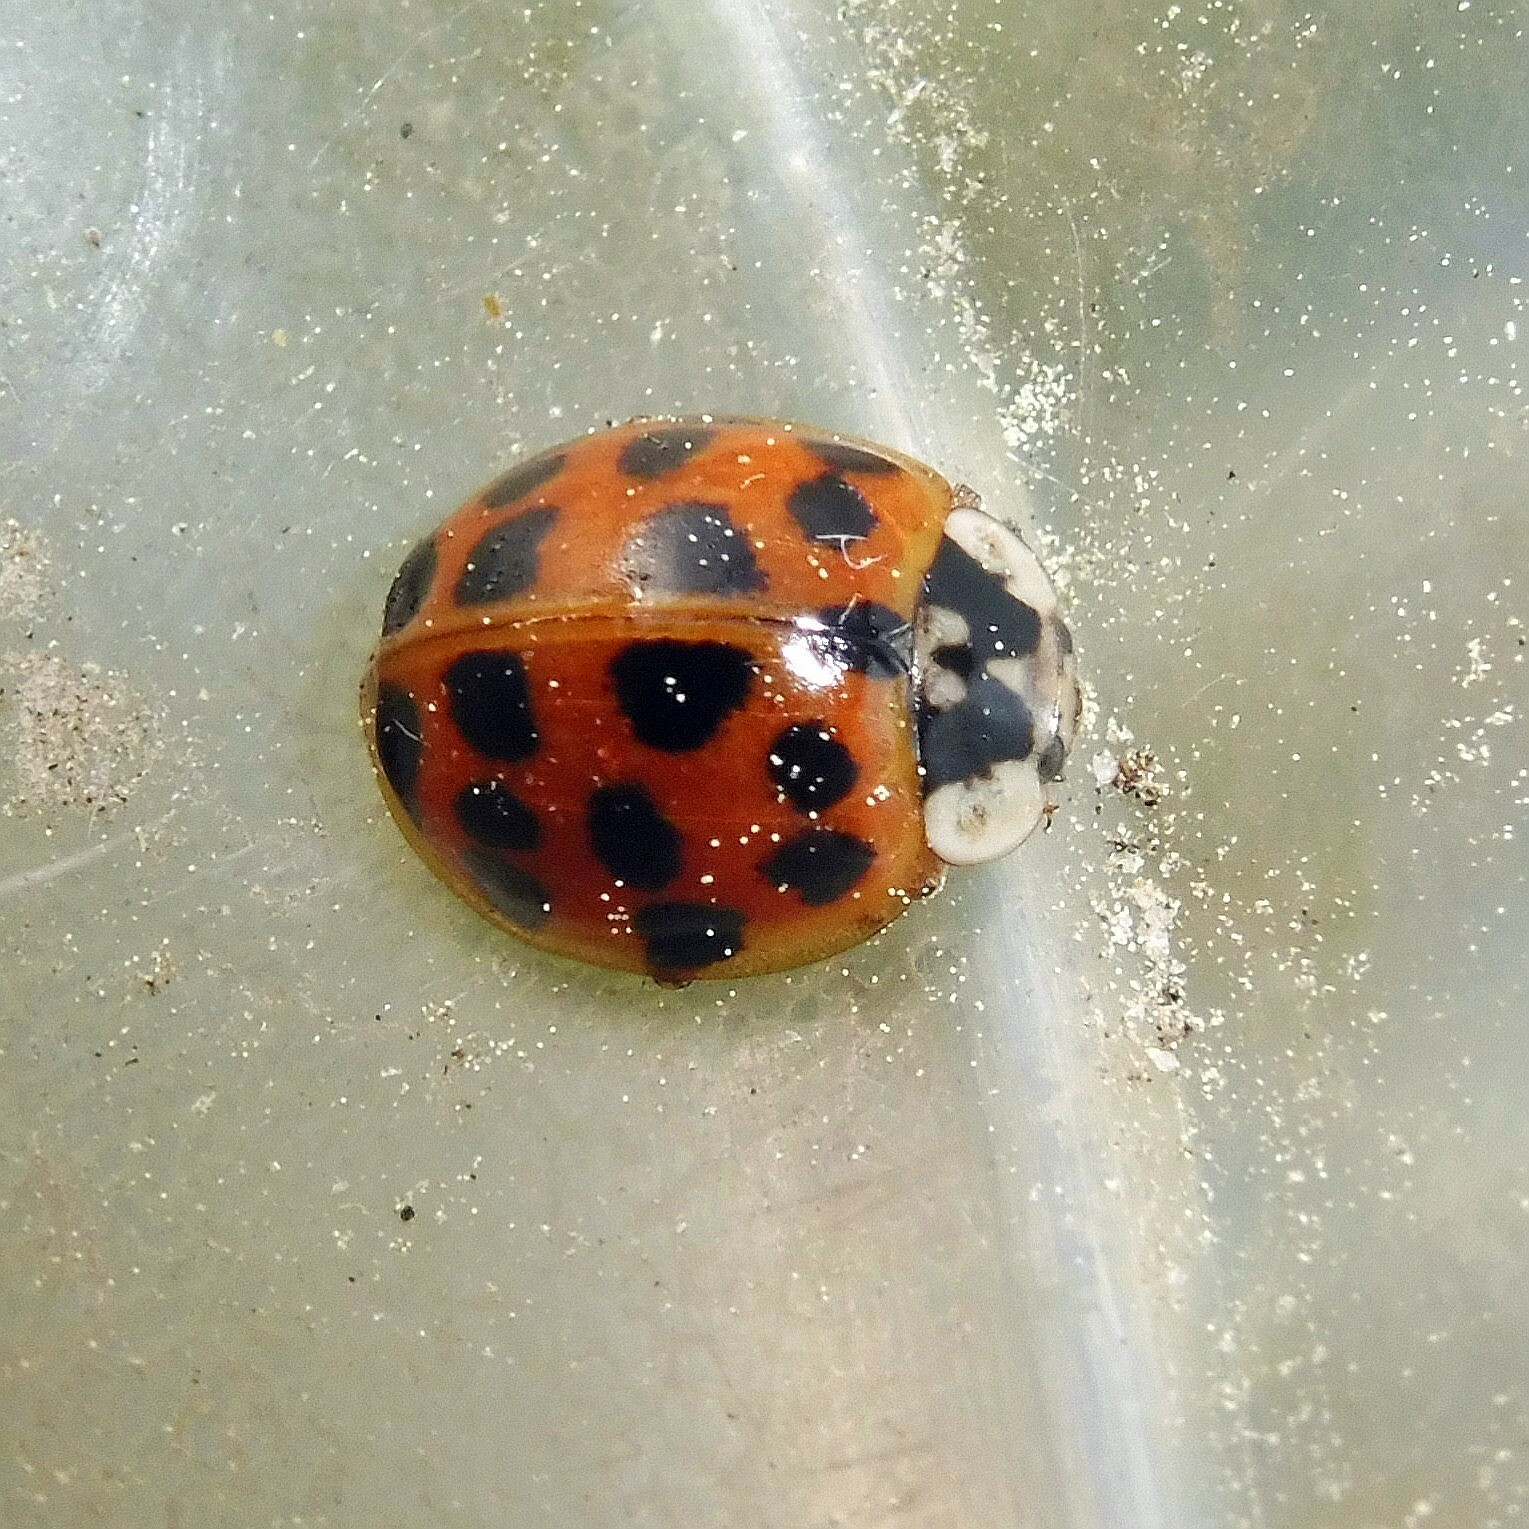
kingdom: Animalia
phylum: Arthropoda
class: Insecta
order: Coleoptera
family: Coccinellidae
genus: Harmonia
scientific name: Harmonia axyridis
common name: Harlequin ladybird
